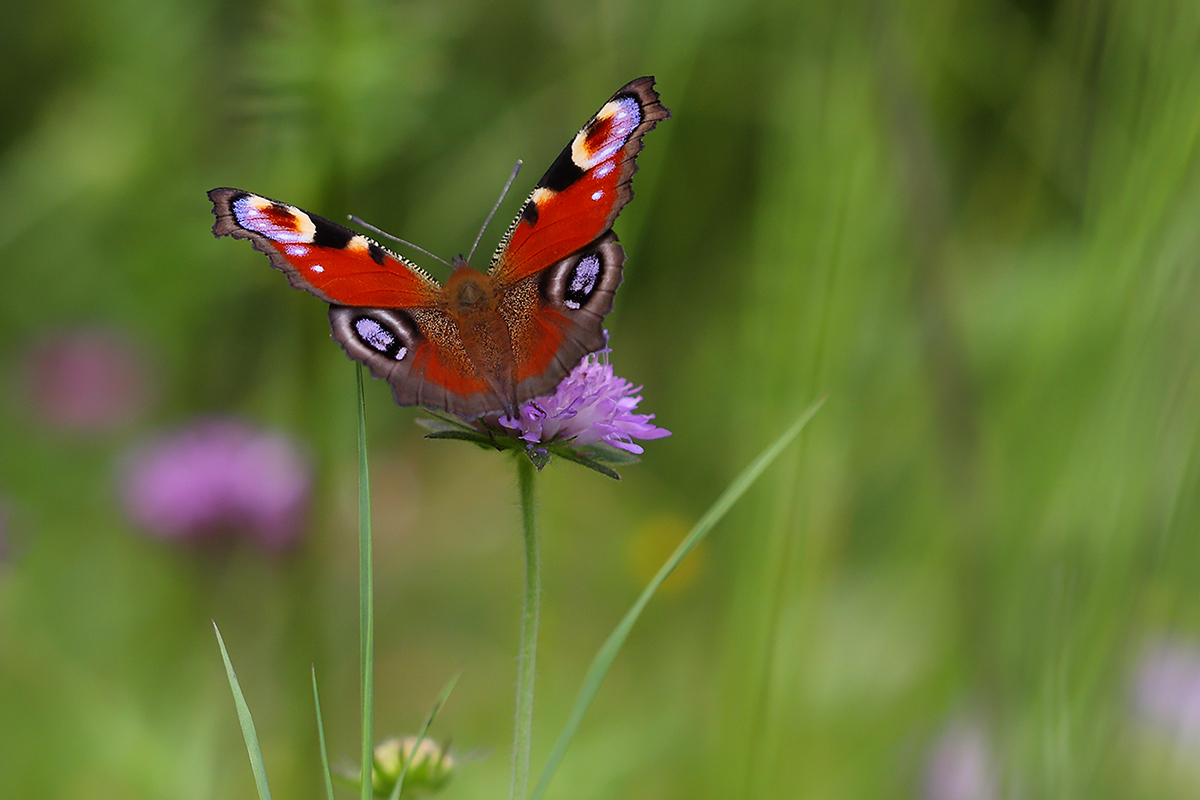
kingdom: Animalia
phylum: Arthropoda
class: Insecta
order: Lepidoptera
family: Nymphalidae
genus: Aglais
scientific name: Aglais io
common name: Peacock
